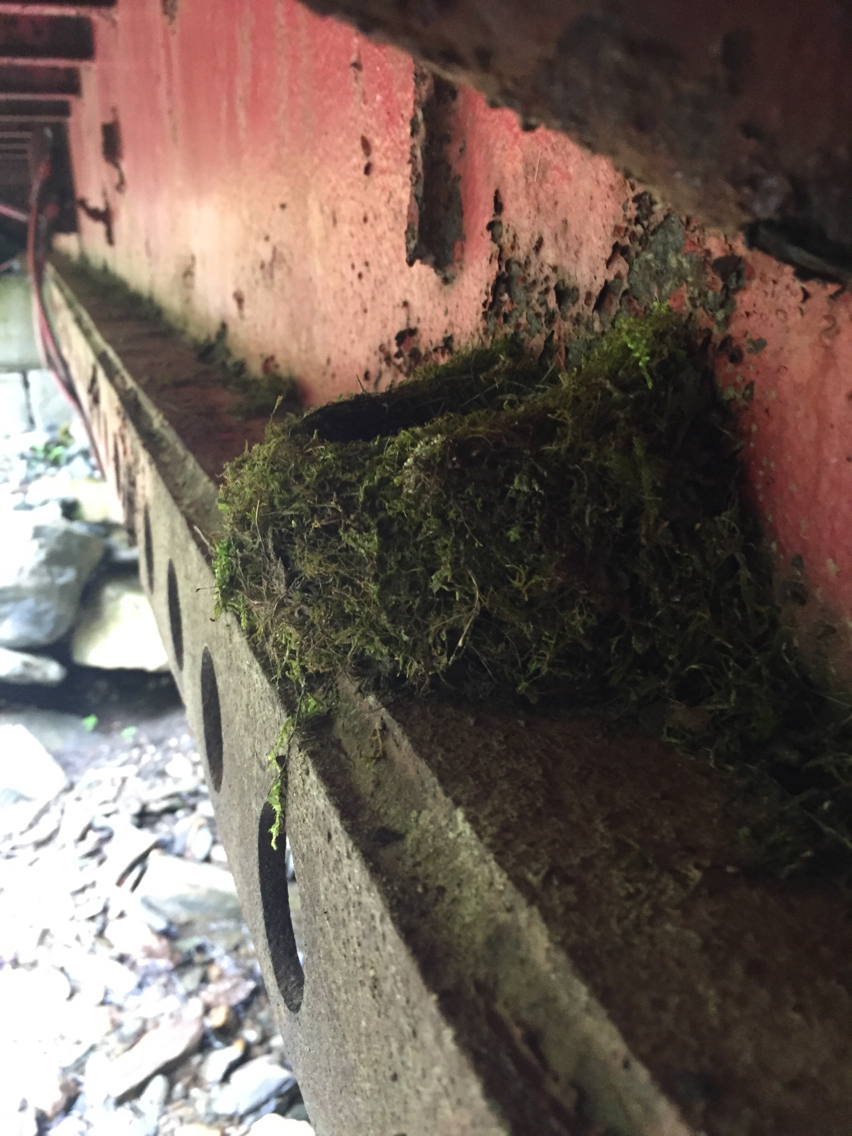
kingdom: Animalia
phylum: Chordata
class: Aves
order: Passeriformes
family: Tyrannidae
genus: Sayornis
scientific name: Sayornis phoebe
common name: Eastern phoebe
